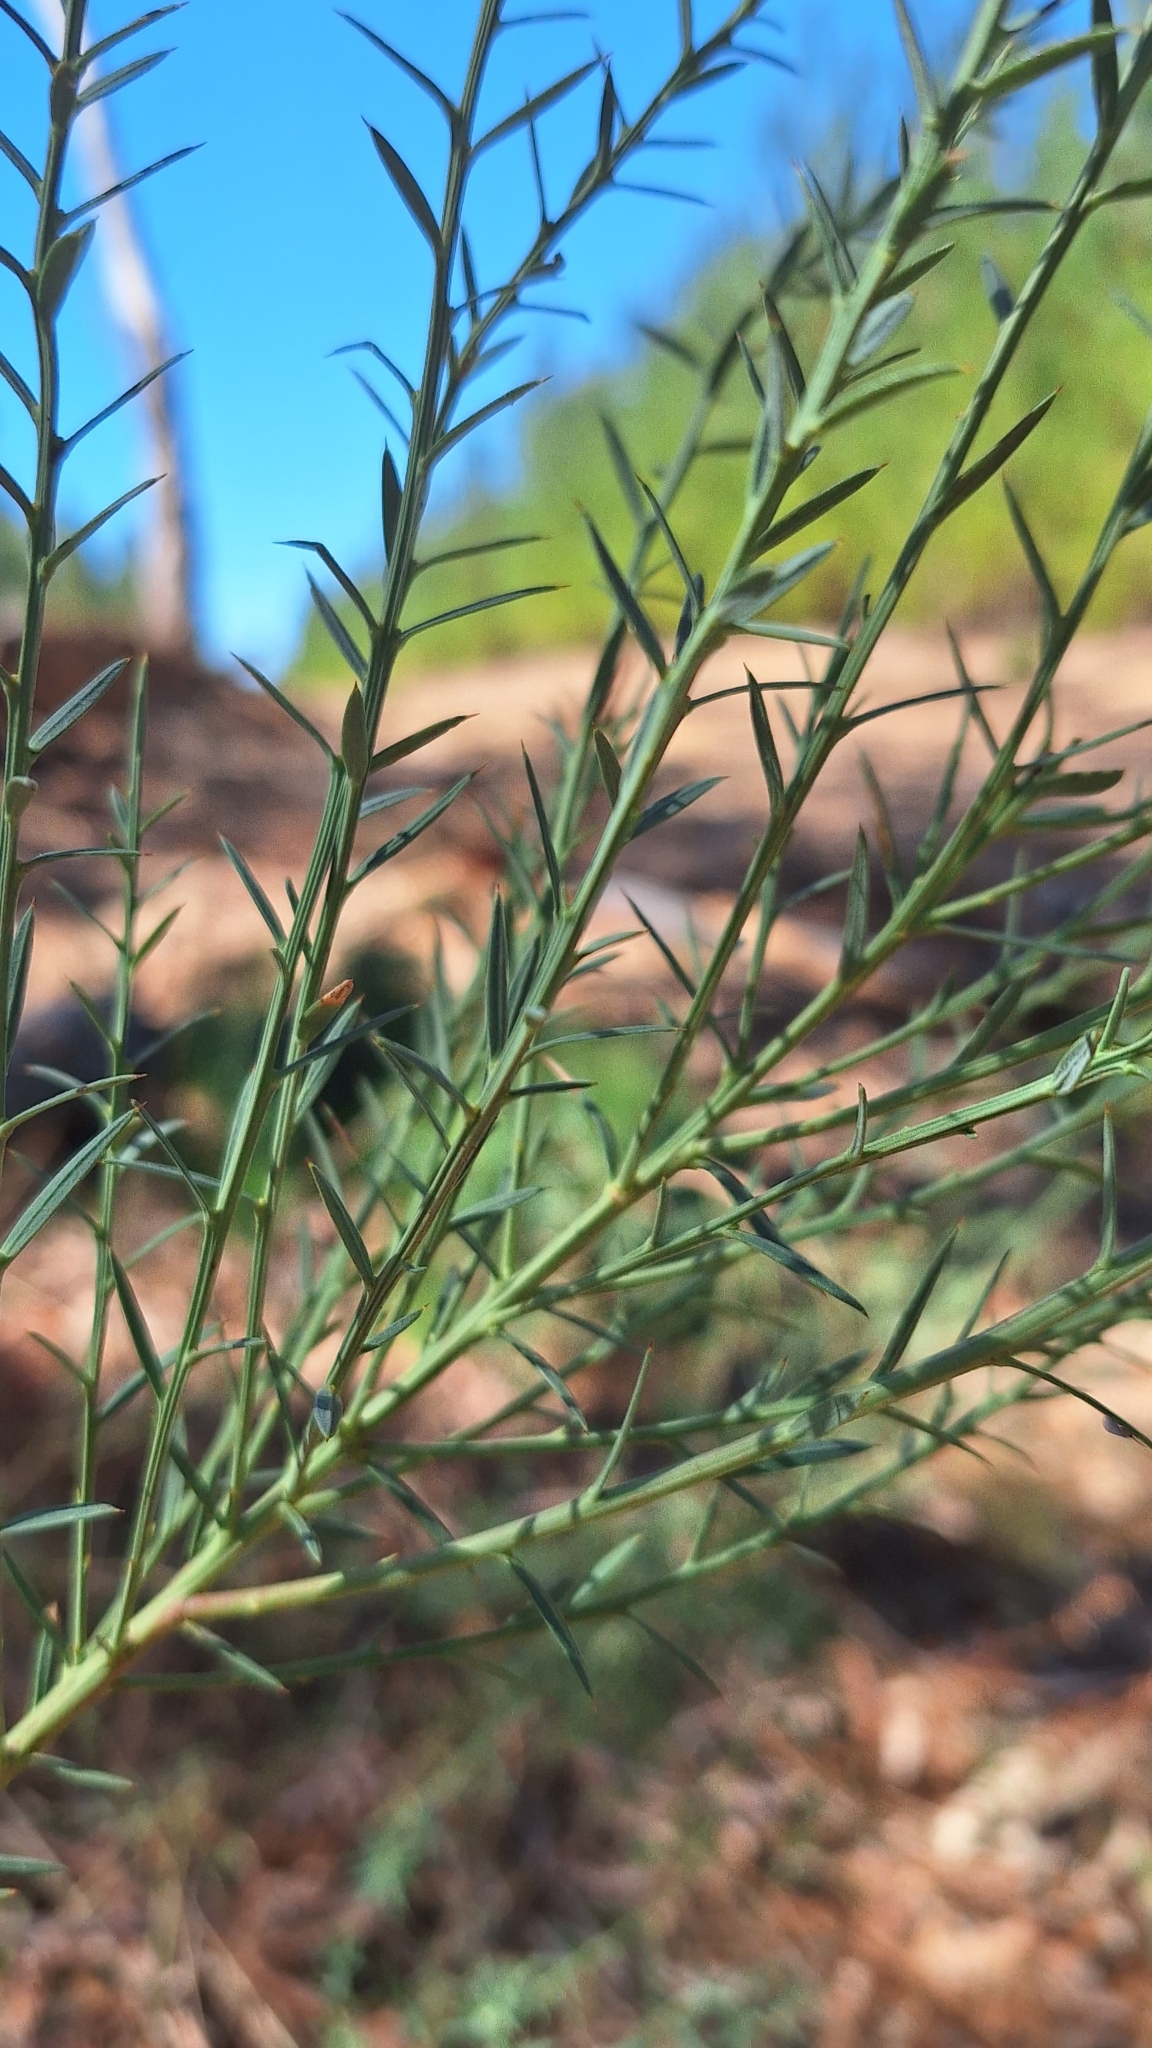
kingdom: Plantae
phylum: Tracheophyta
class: Magnoliopsida
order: Fabales
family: Fabaceae
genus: Daviesia
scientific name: Daviesia ulicifolia
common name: Gorse bitter-pea
